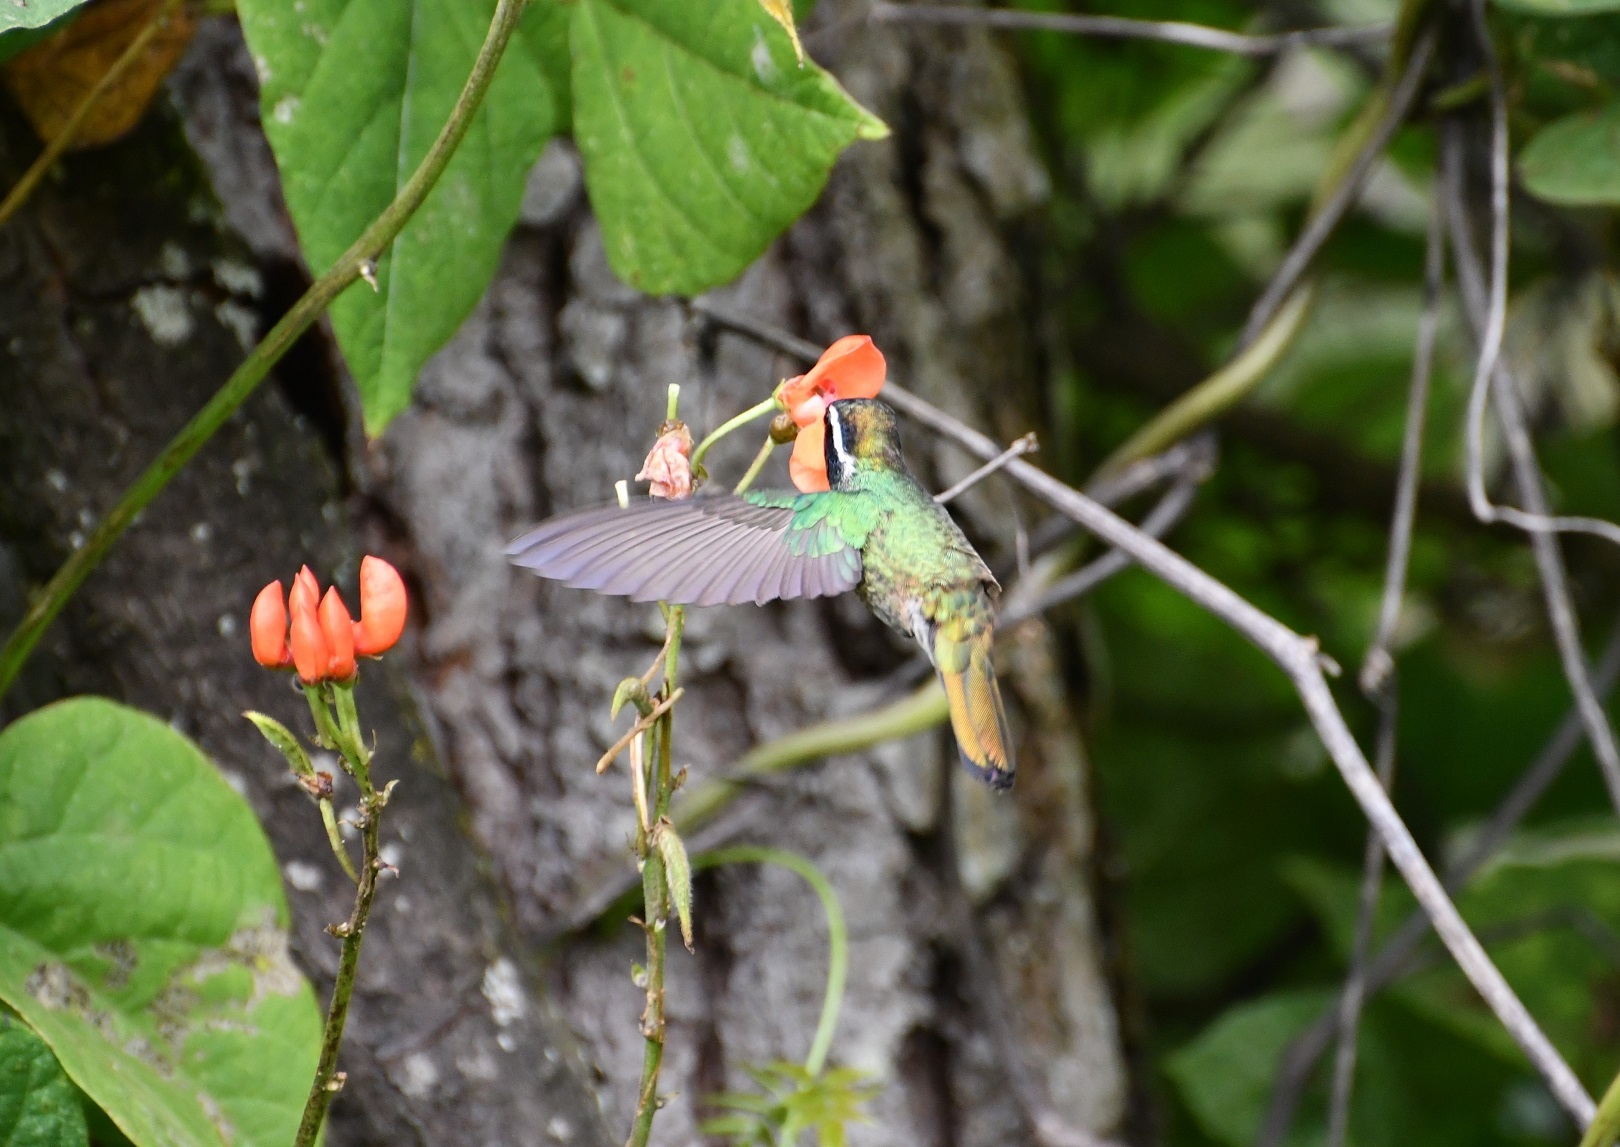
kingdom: Animalia
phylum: Chordata
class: Aves
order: Apodiformes
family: Trochilidae
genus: Basilinna
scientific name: Basilinna leucotis
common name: White-eared hummingbird
